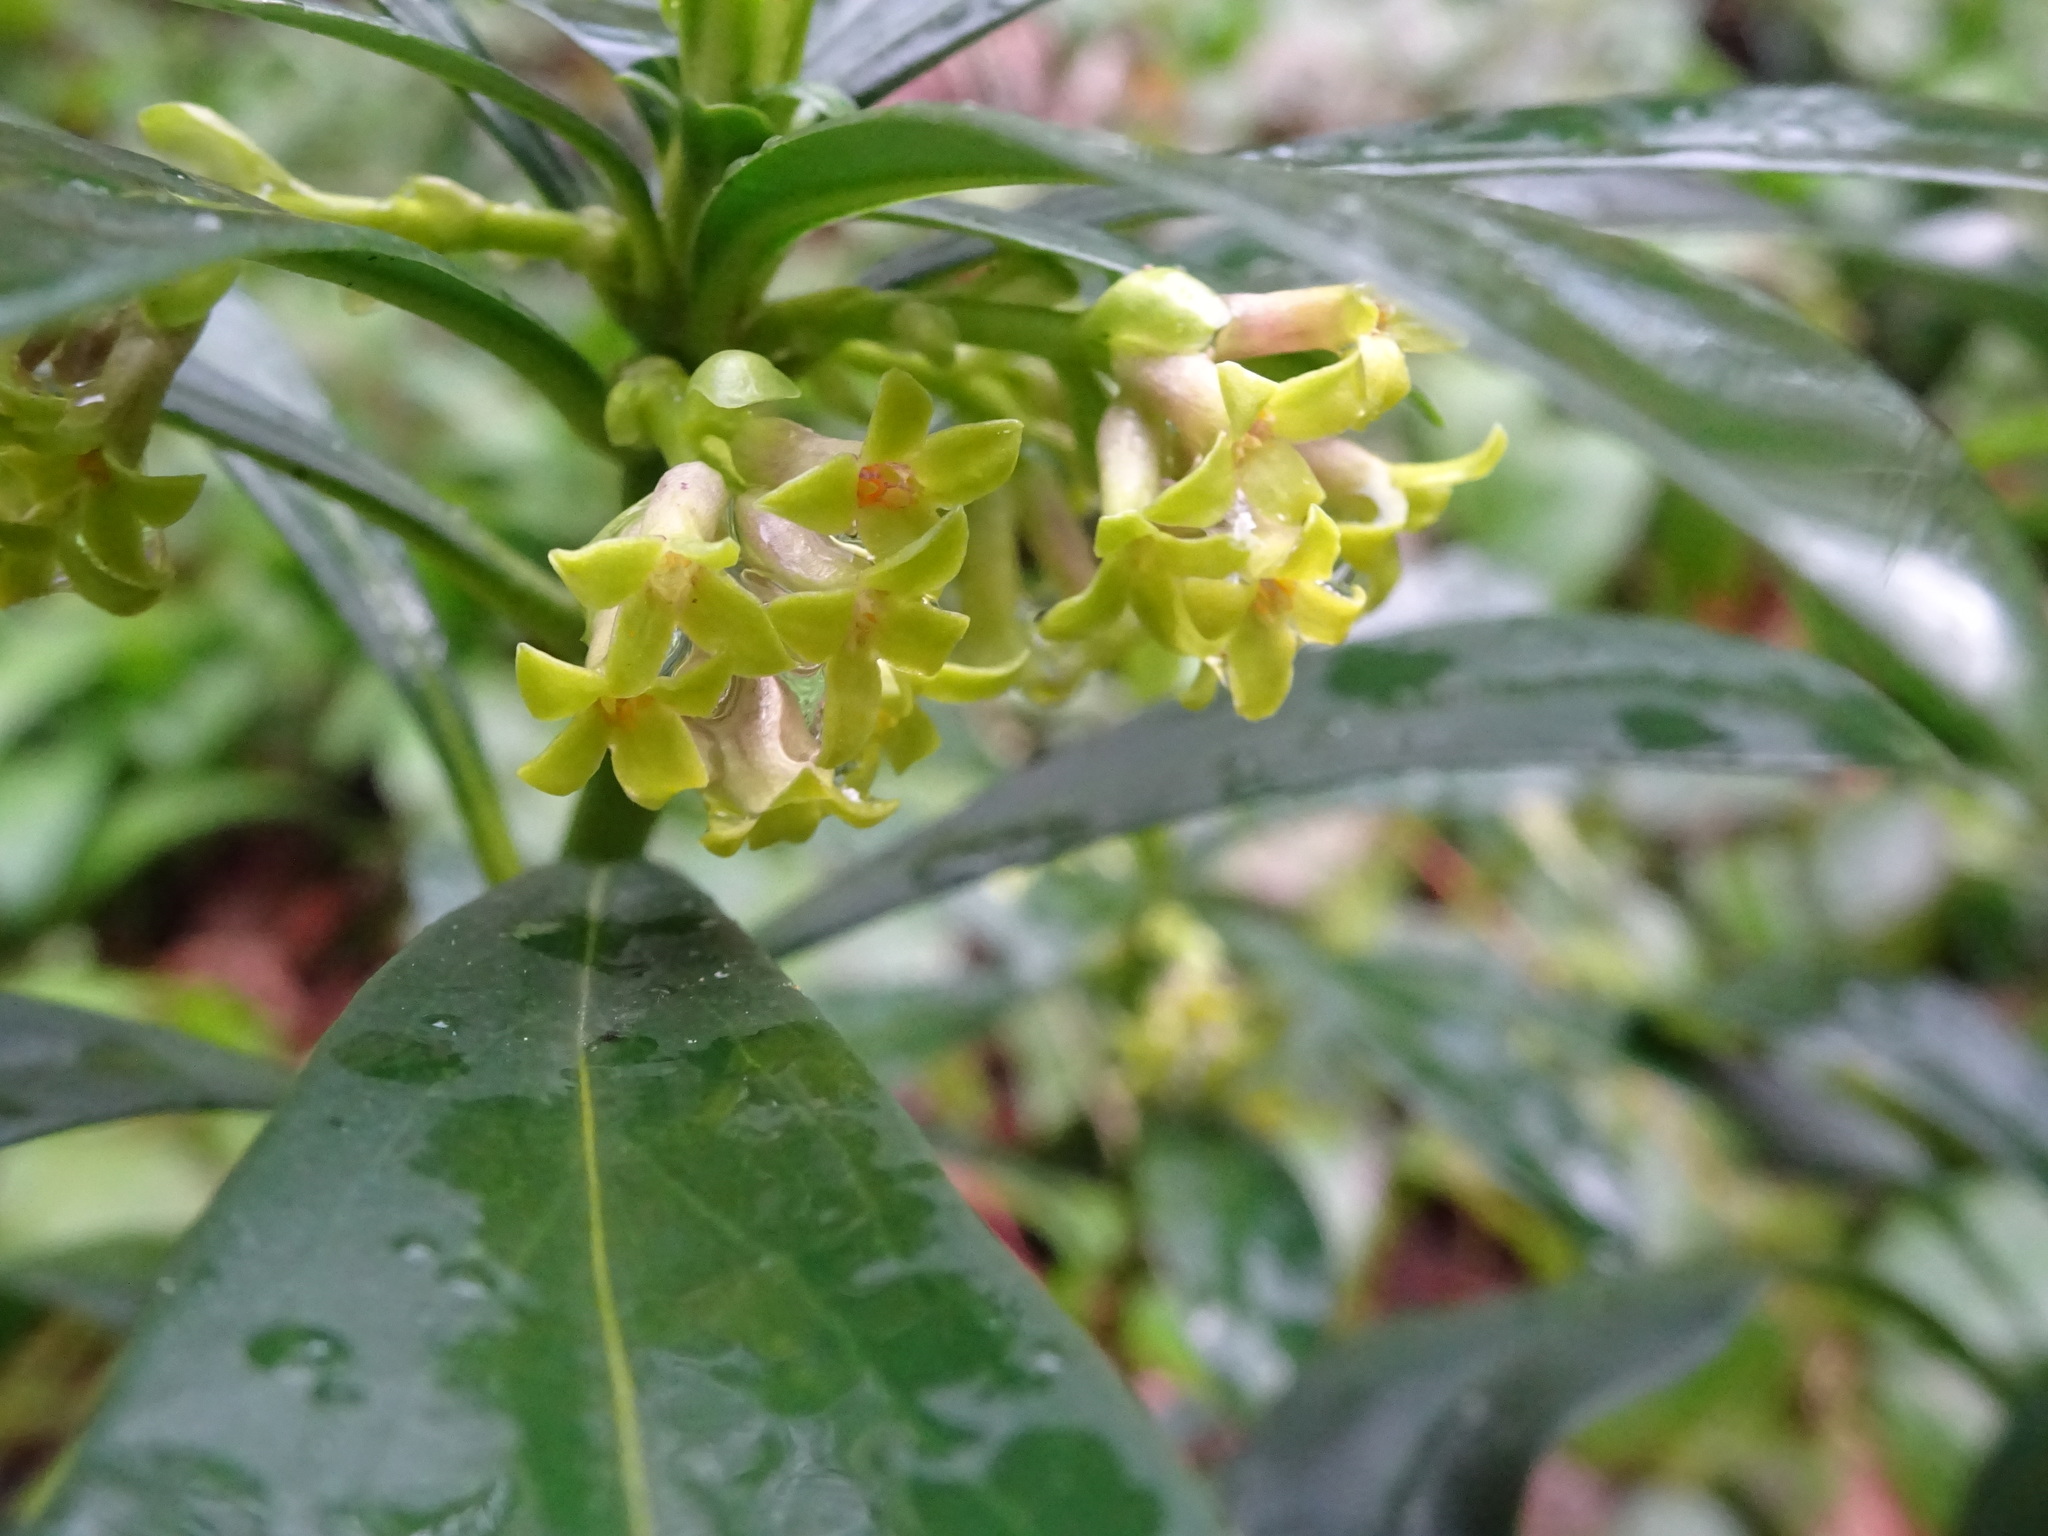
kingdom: Plantae
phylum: Tracheophyta
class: Magnoliopsida
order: Malvales
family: Thymelaeaceae
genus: Daphne
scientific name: Daphne laureola
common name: Spurge-laurel
